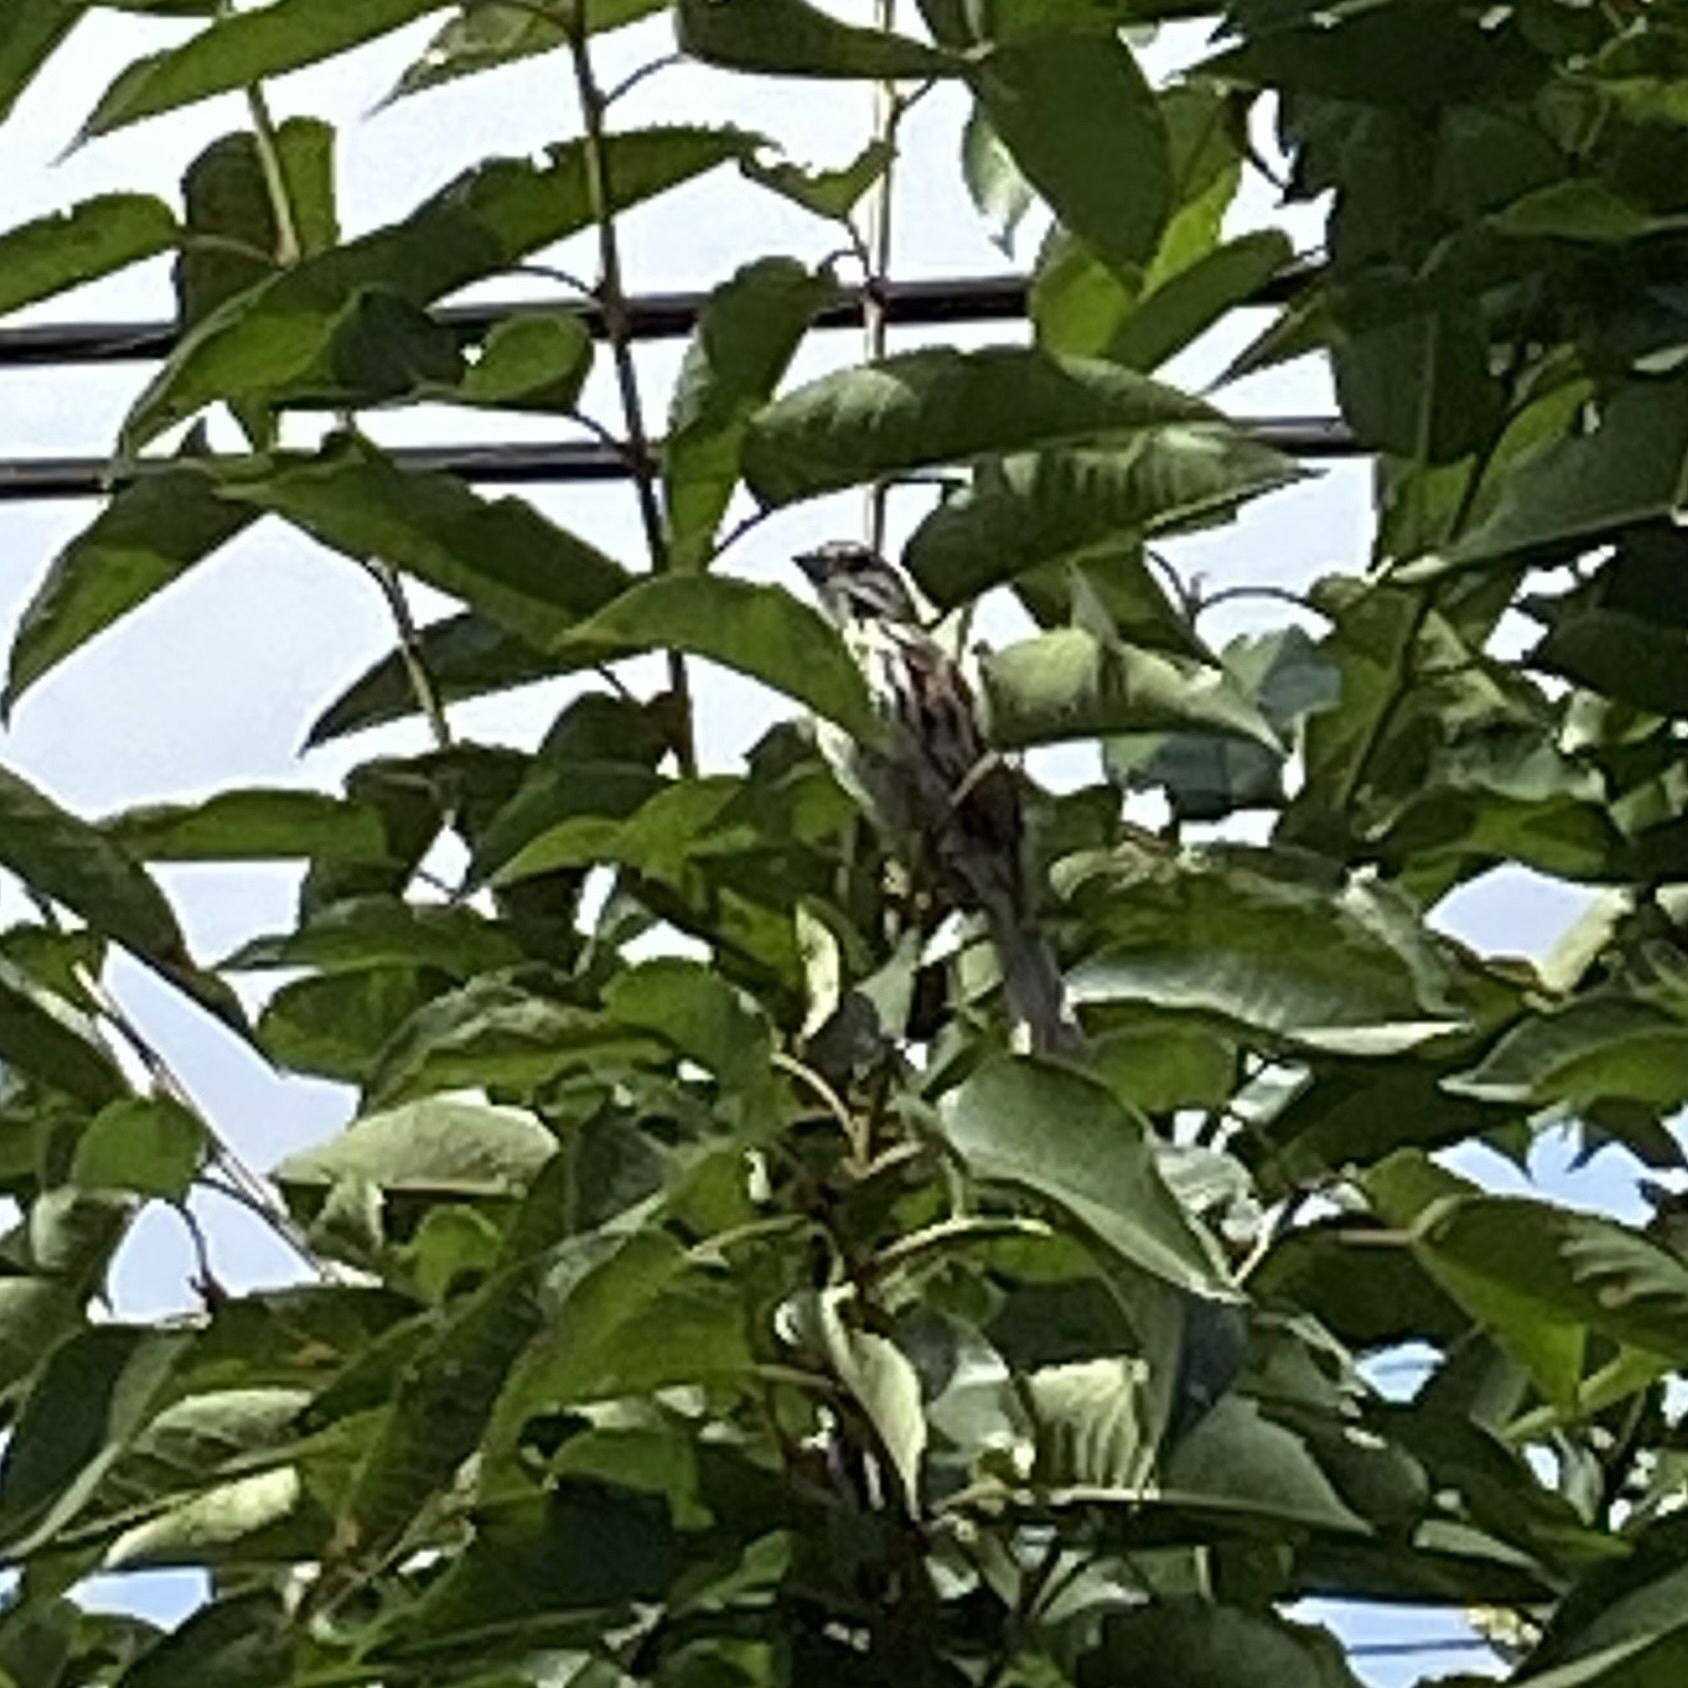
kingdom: Animalia
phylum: Chordata
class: Aves
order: Passeriformes
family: Passerellidae
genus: Melospiza
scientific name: Melospiza melodia
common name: Song sparrow
